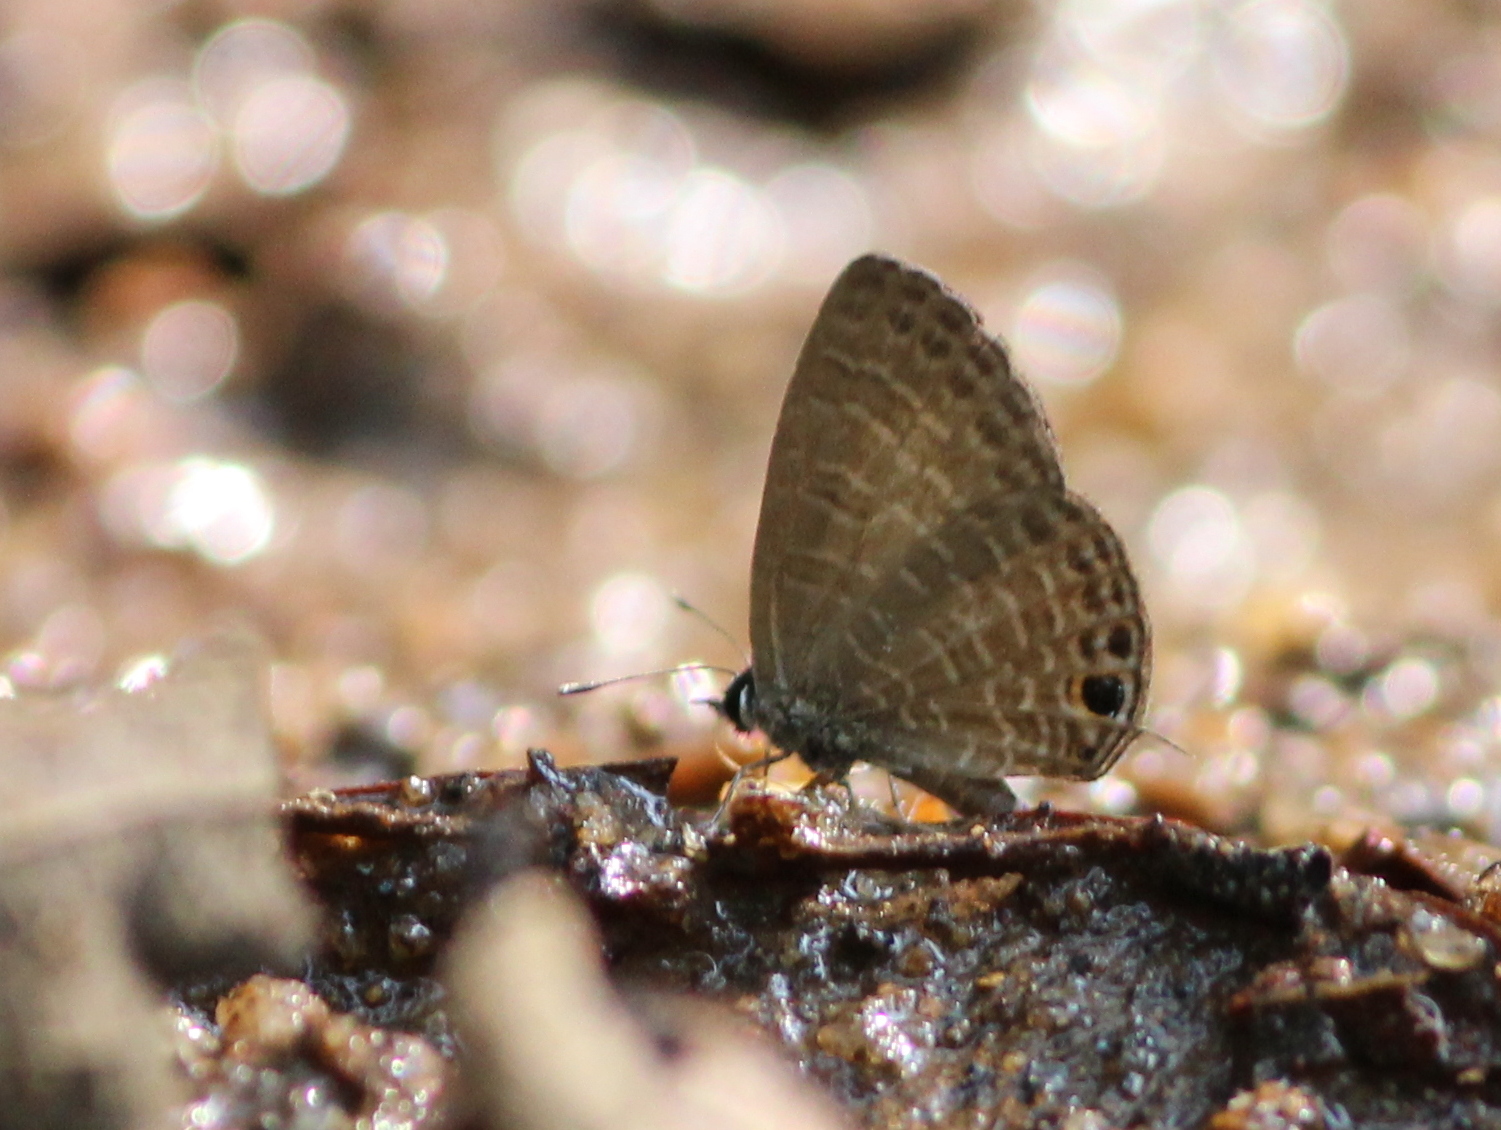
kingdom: Animalia
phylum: Arthropoda
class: Insecta
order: Lepidoptera
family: Lycaenidae
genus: Nacaduba
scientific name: Nacaduba kurava
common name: Transparent 6-line blue
